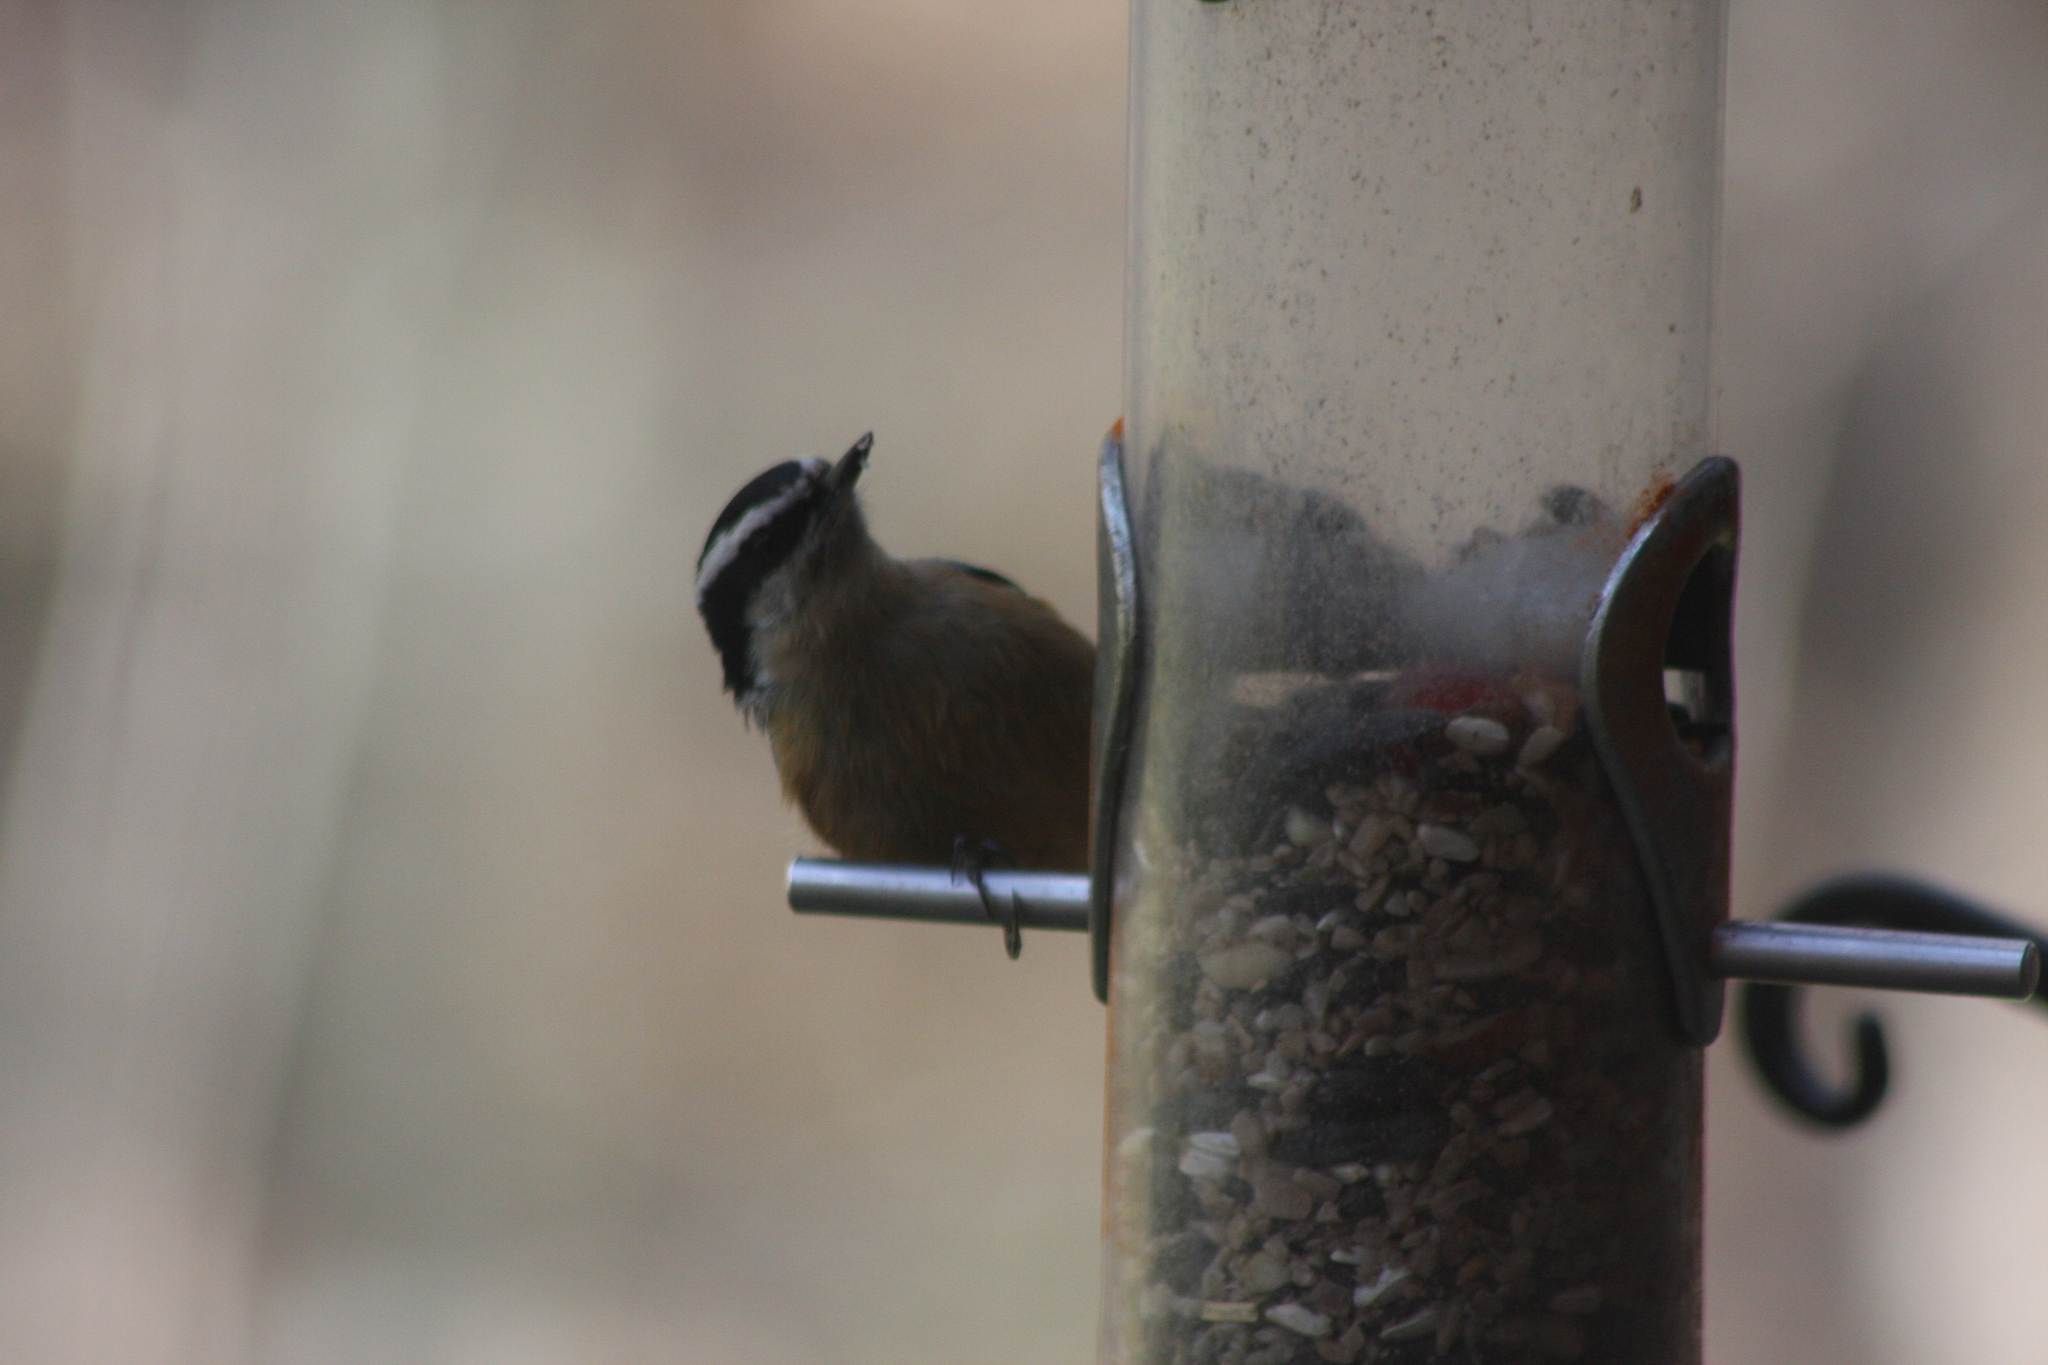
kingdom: Animalia
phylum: Chordata
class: Aves
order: Passeriformes
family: Sittidae
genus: Sitta
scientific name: Sitta canadensis
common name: Red-breasted nuthatch
